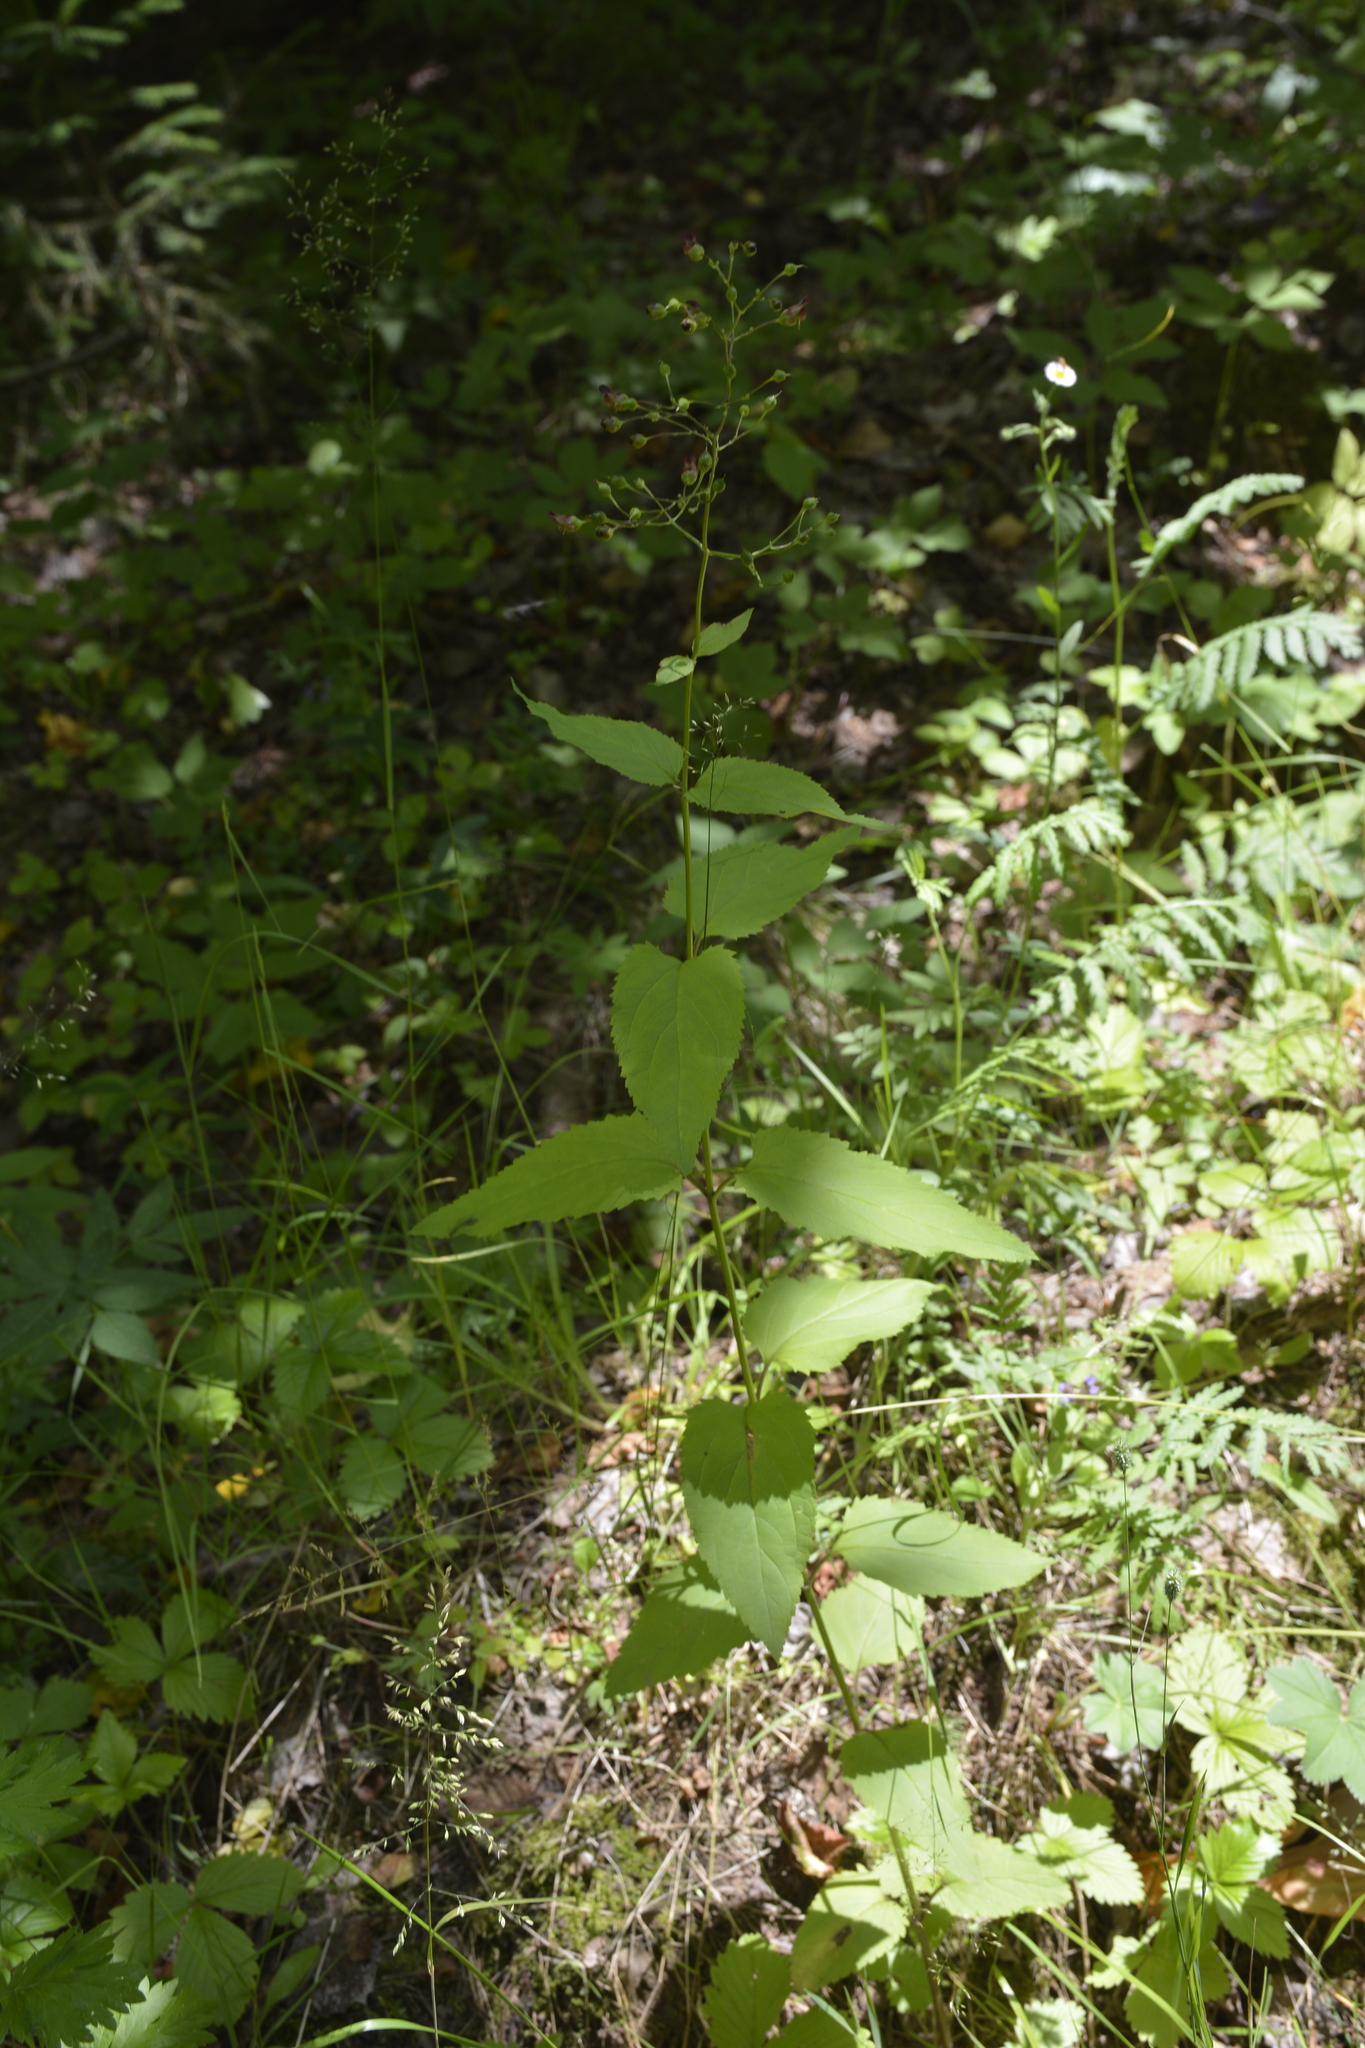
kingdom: Plantae
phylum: Tracheophyta
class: Magnoliopsida
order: Lamiales
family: Scrophulariaceae
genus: Scrophularia
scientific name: Scrophularia nodosa
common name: Common figwort
